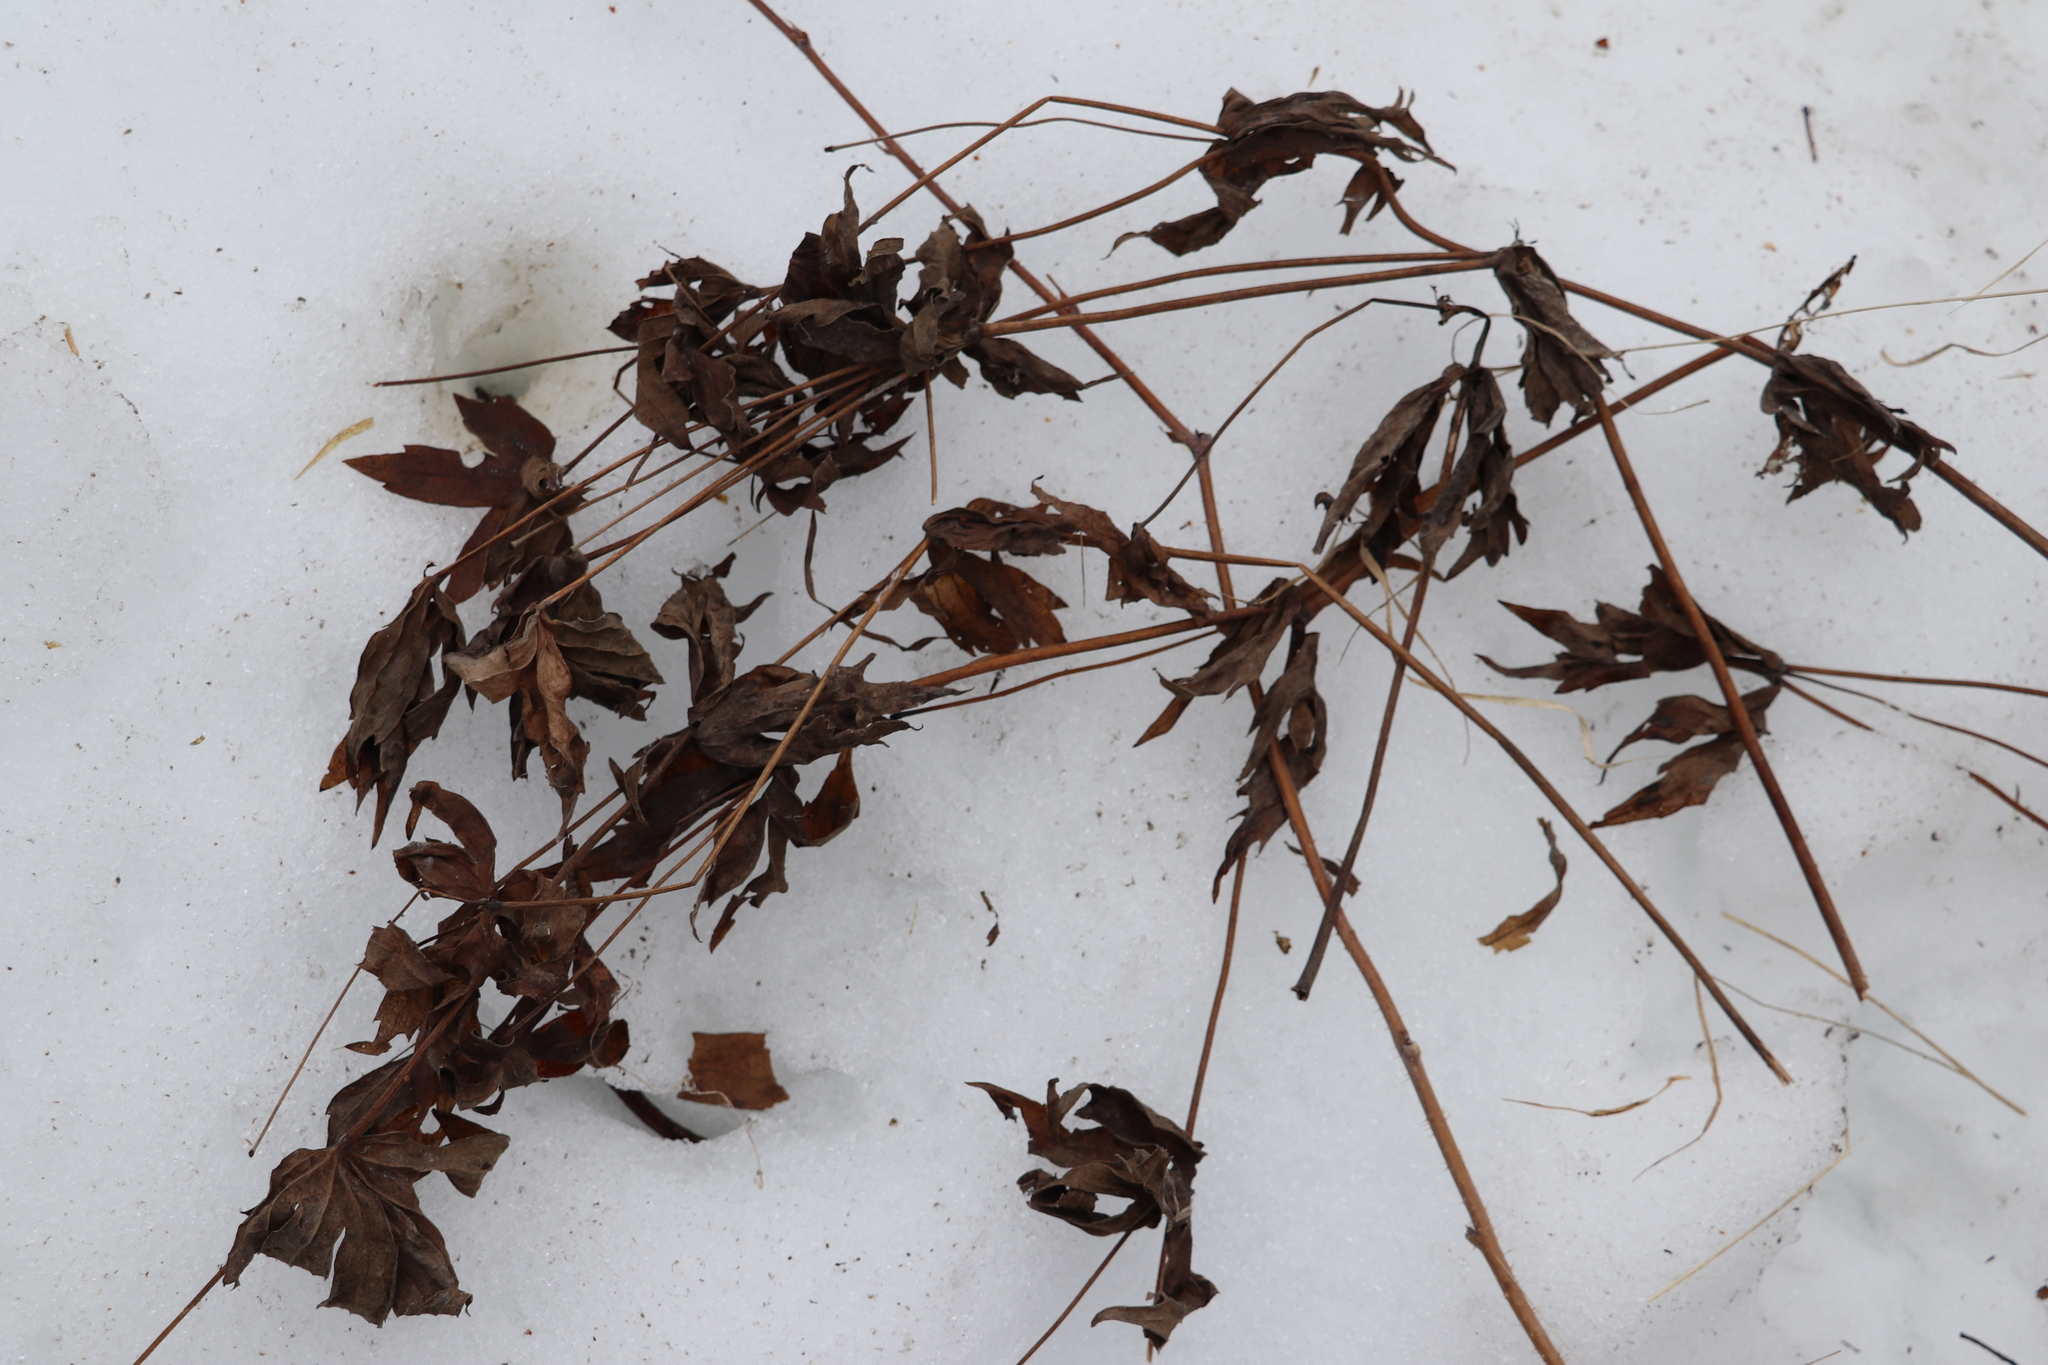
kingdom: Plantae
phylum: Tracheophyta
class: Magnoliopsida
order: Ranunculales
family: Ranunculaceae
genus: Anemonastrum
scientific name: Anemonastrum dichotomum
